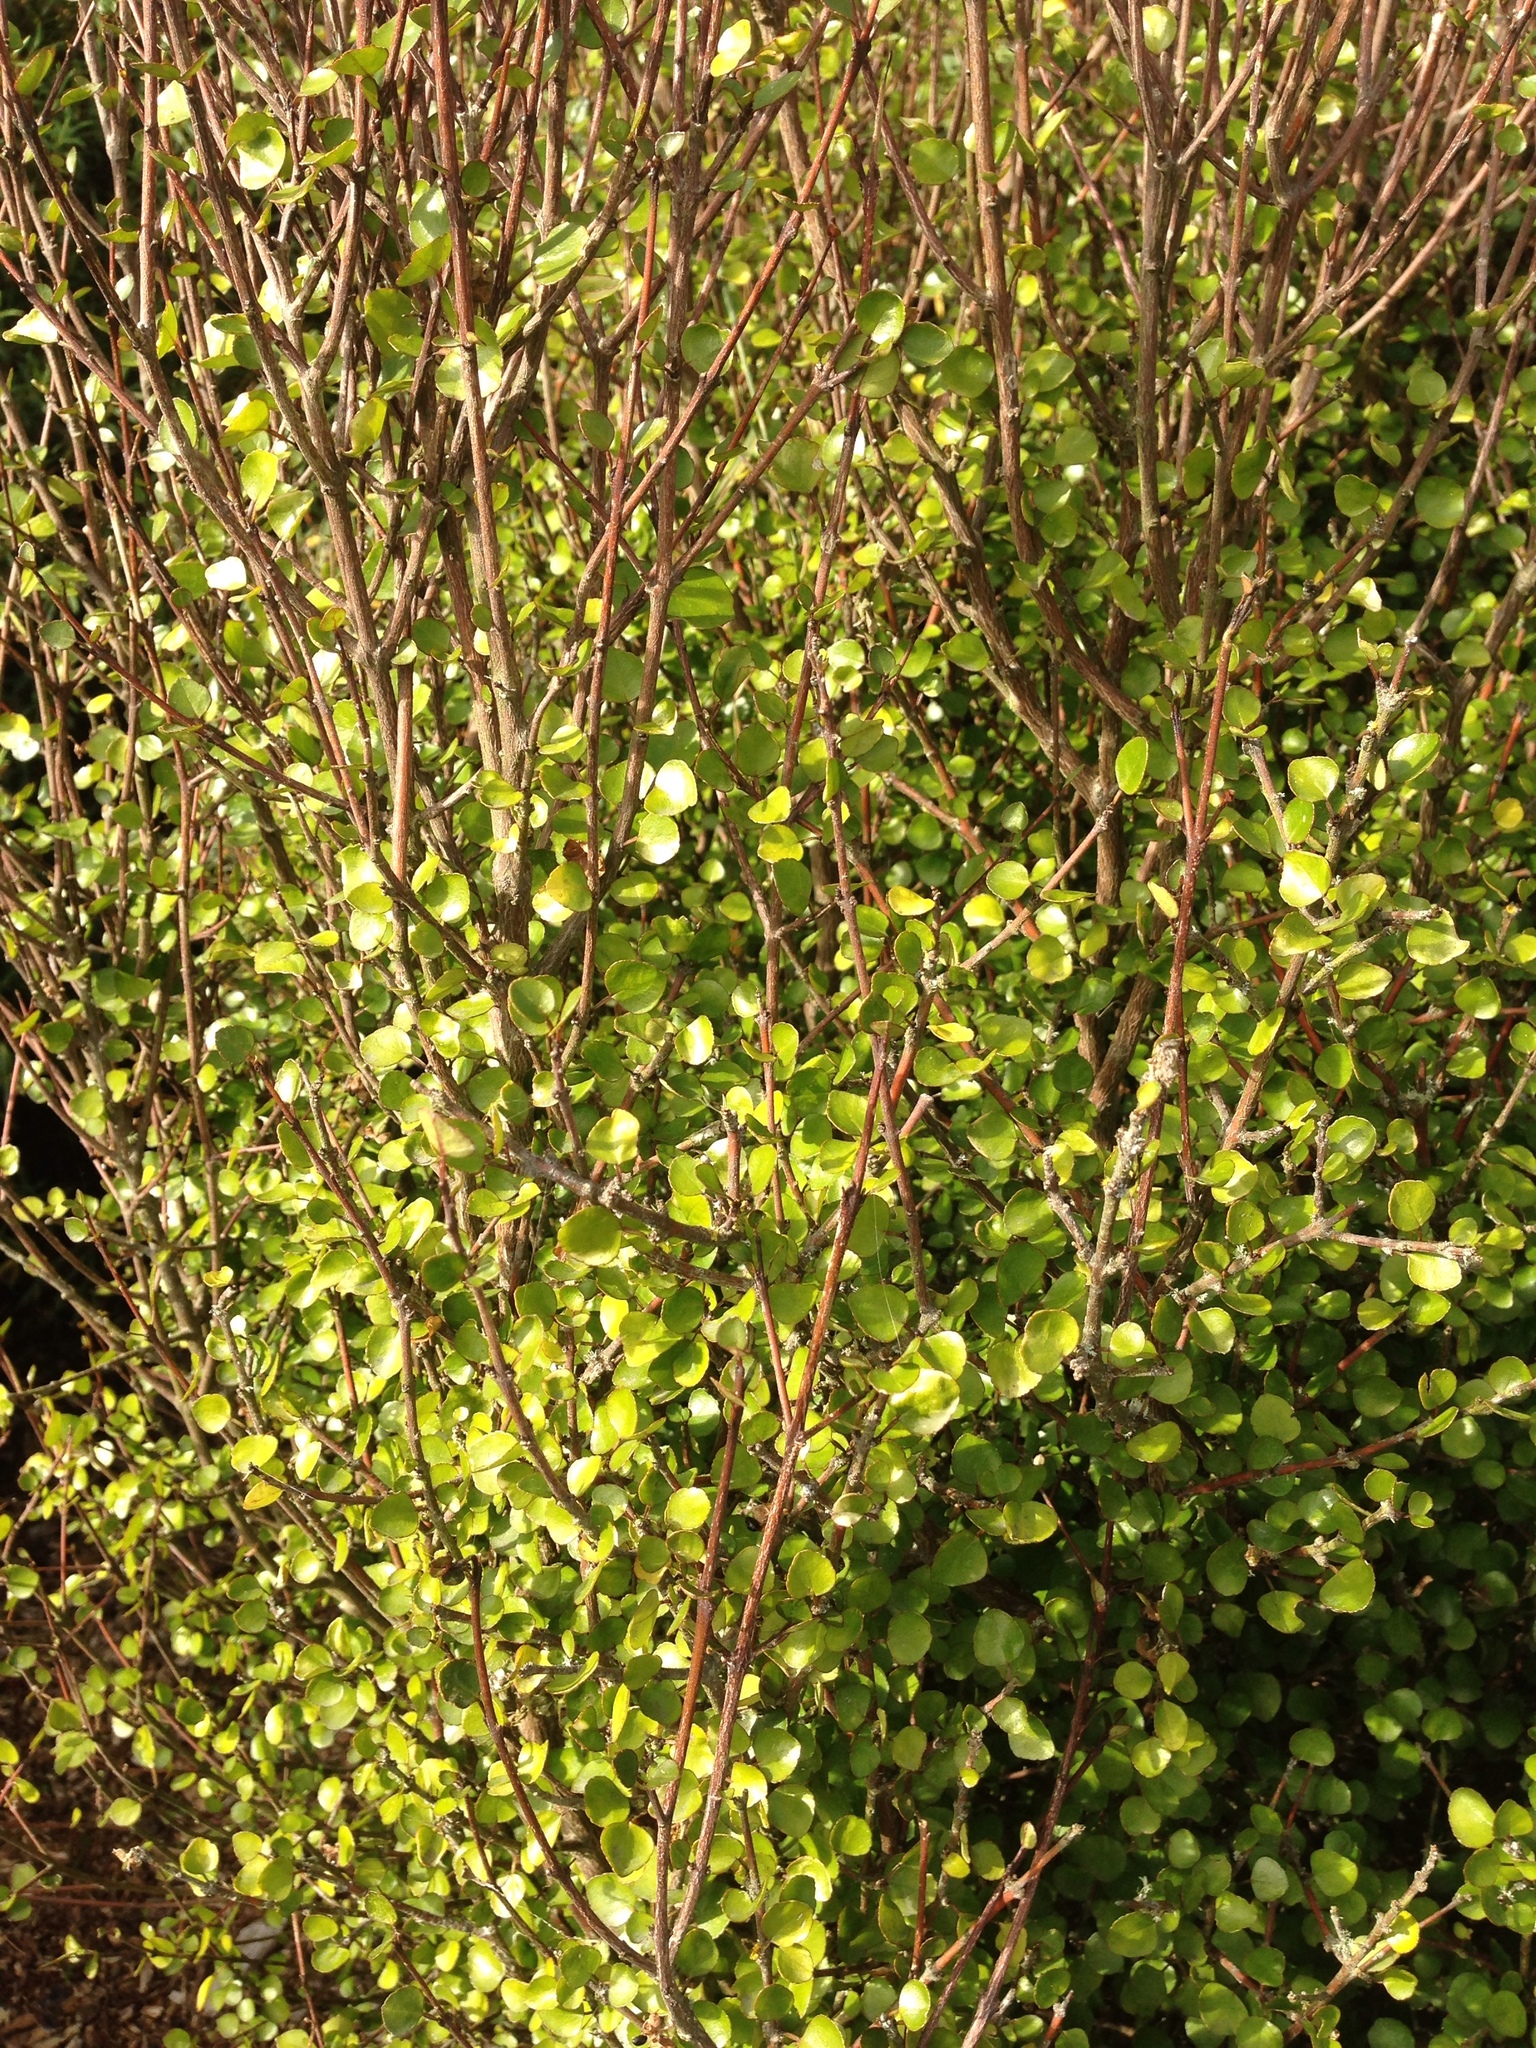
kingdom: Plantae
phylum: Tracheophyta
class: Magnoliopsida
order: Sapindales
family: Rutaceae
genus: Melicope
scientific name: Melicope simplex
